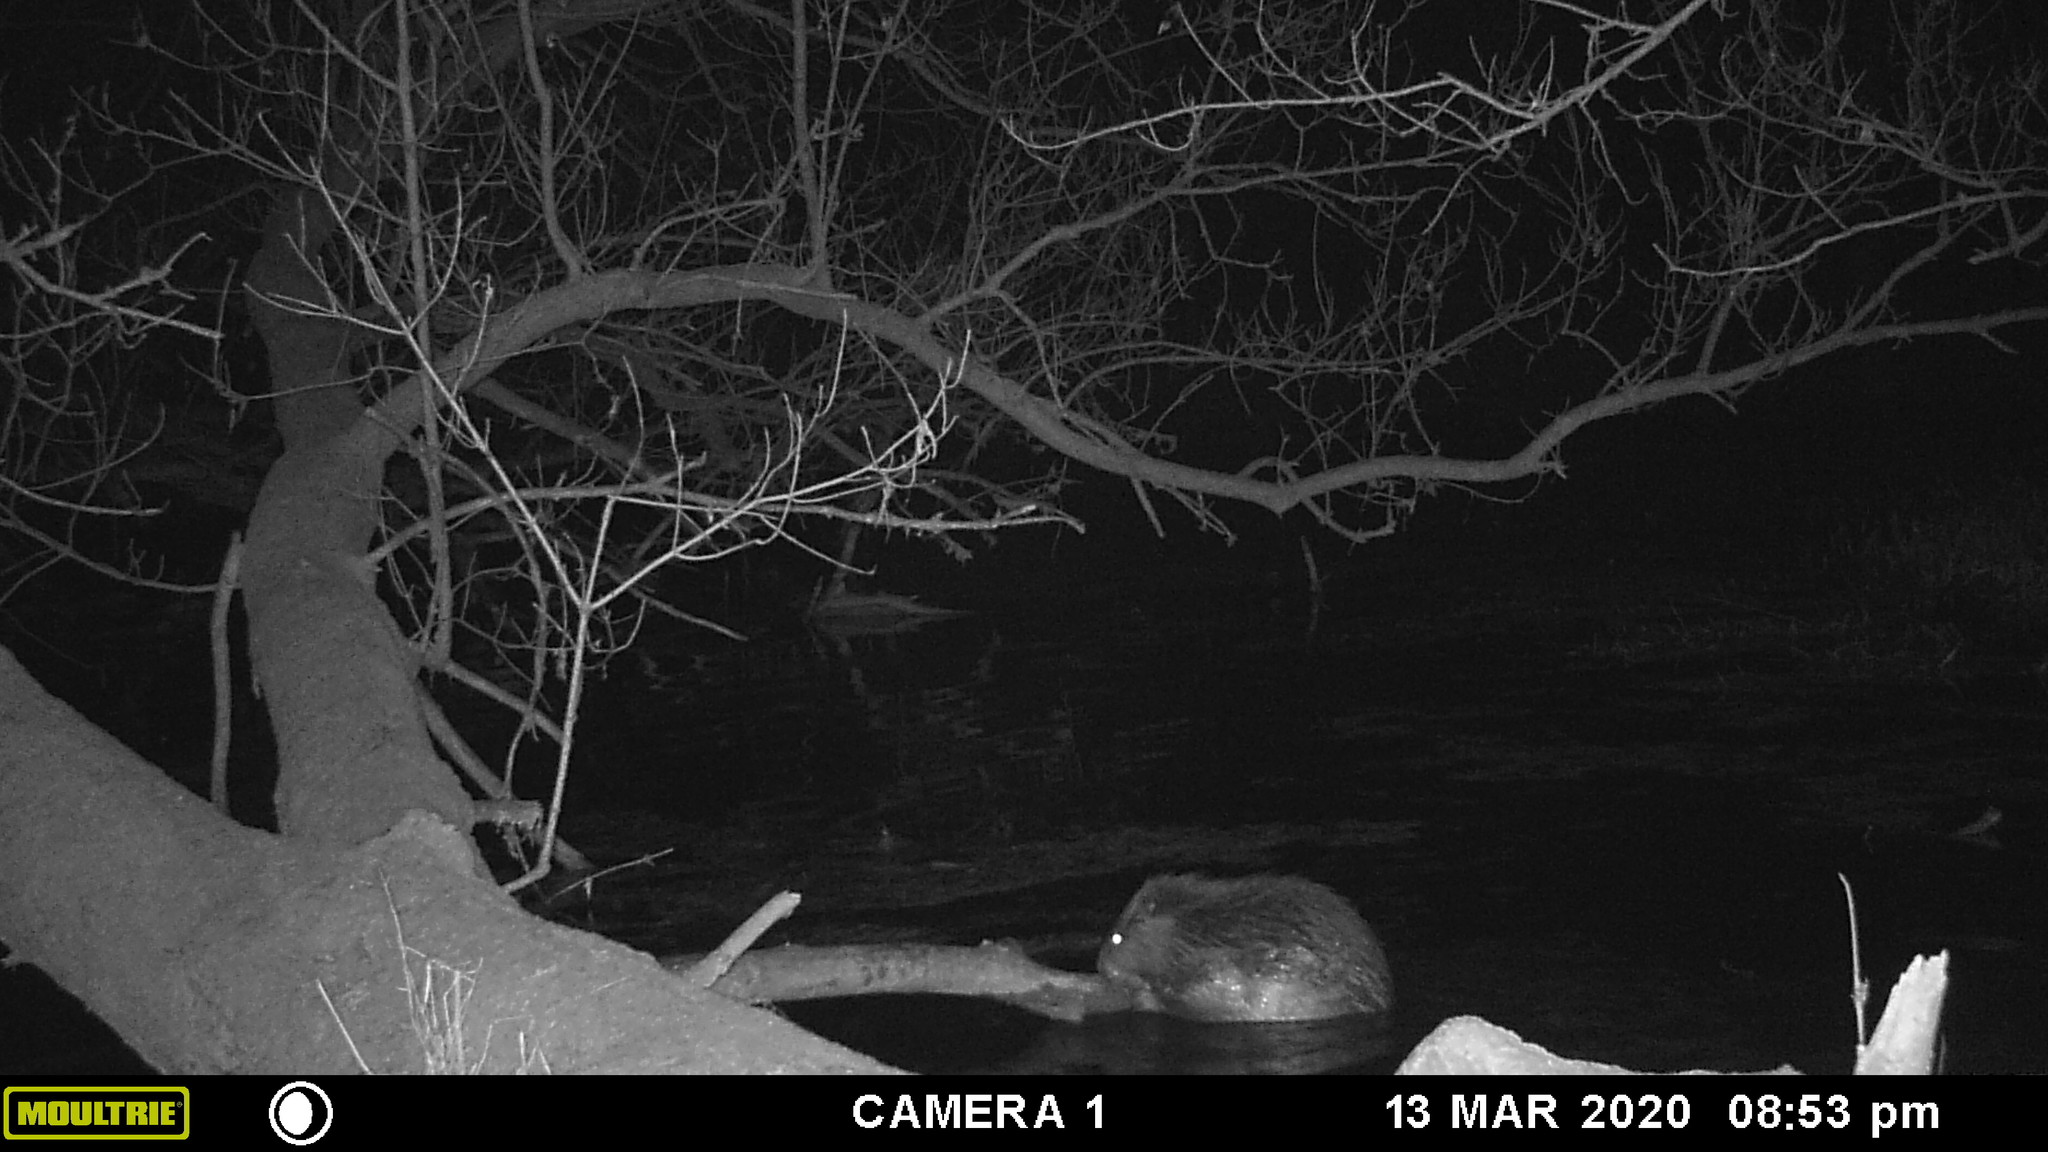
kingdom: Animalia
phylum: Chordata
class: Mammalia
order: Rodentia
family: Castoridae
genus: Castor
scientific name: Castor canadensis
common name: American beaver
